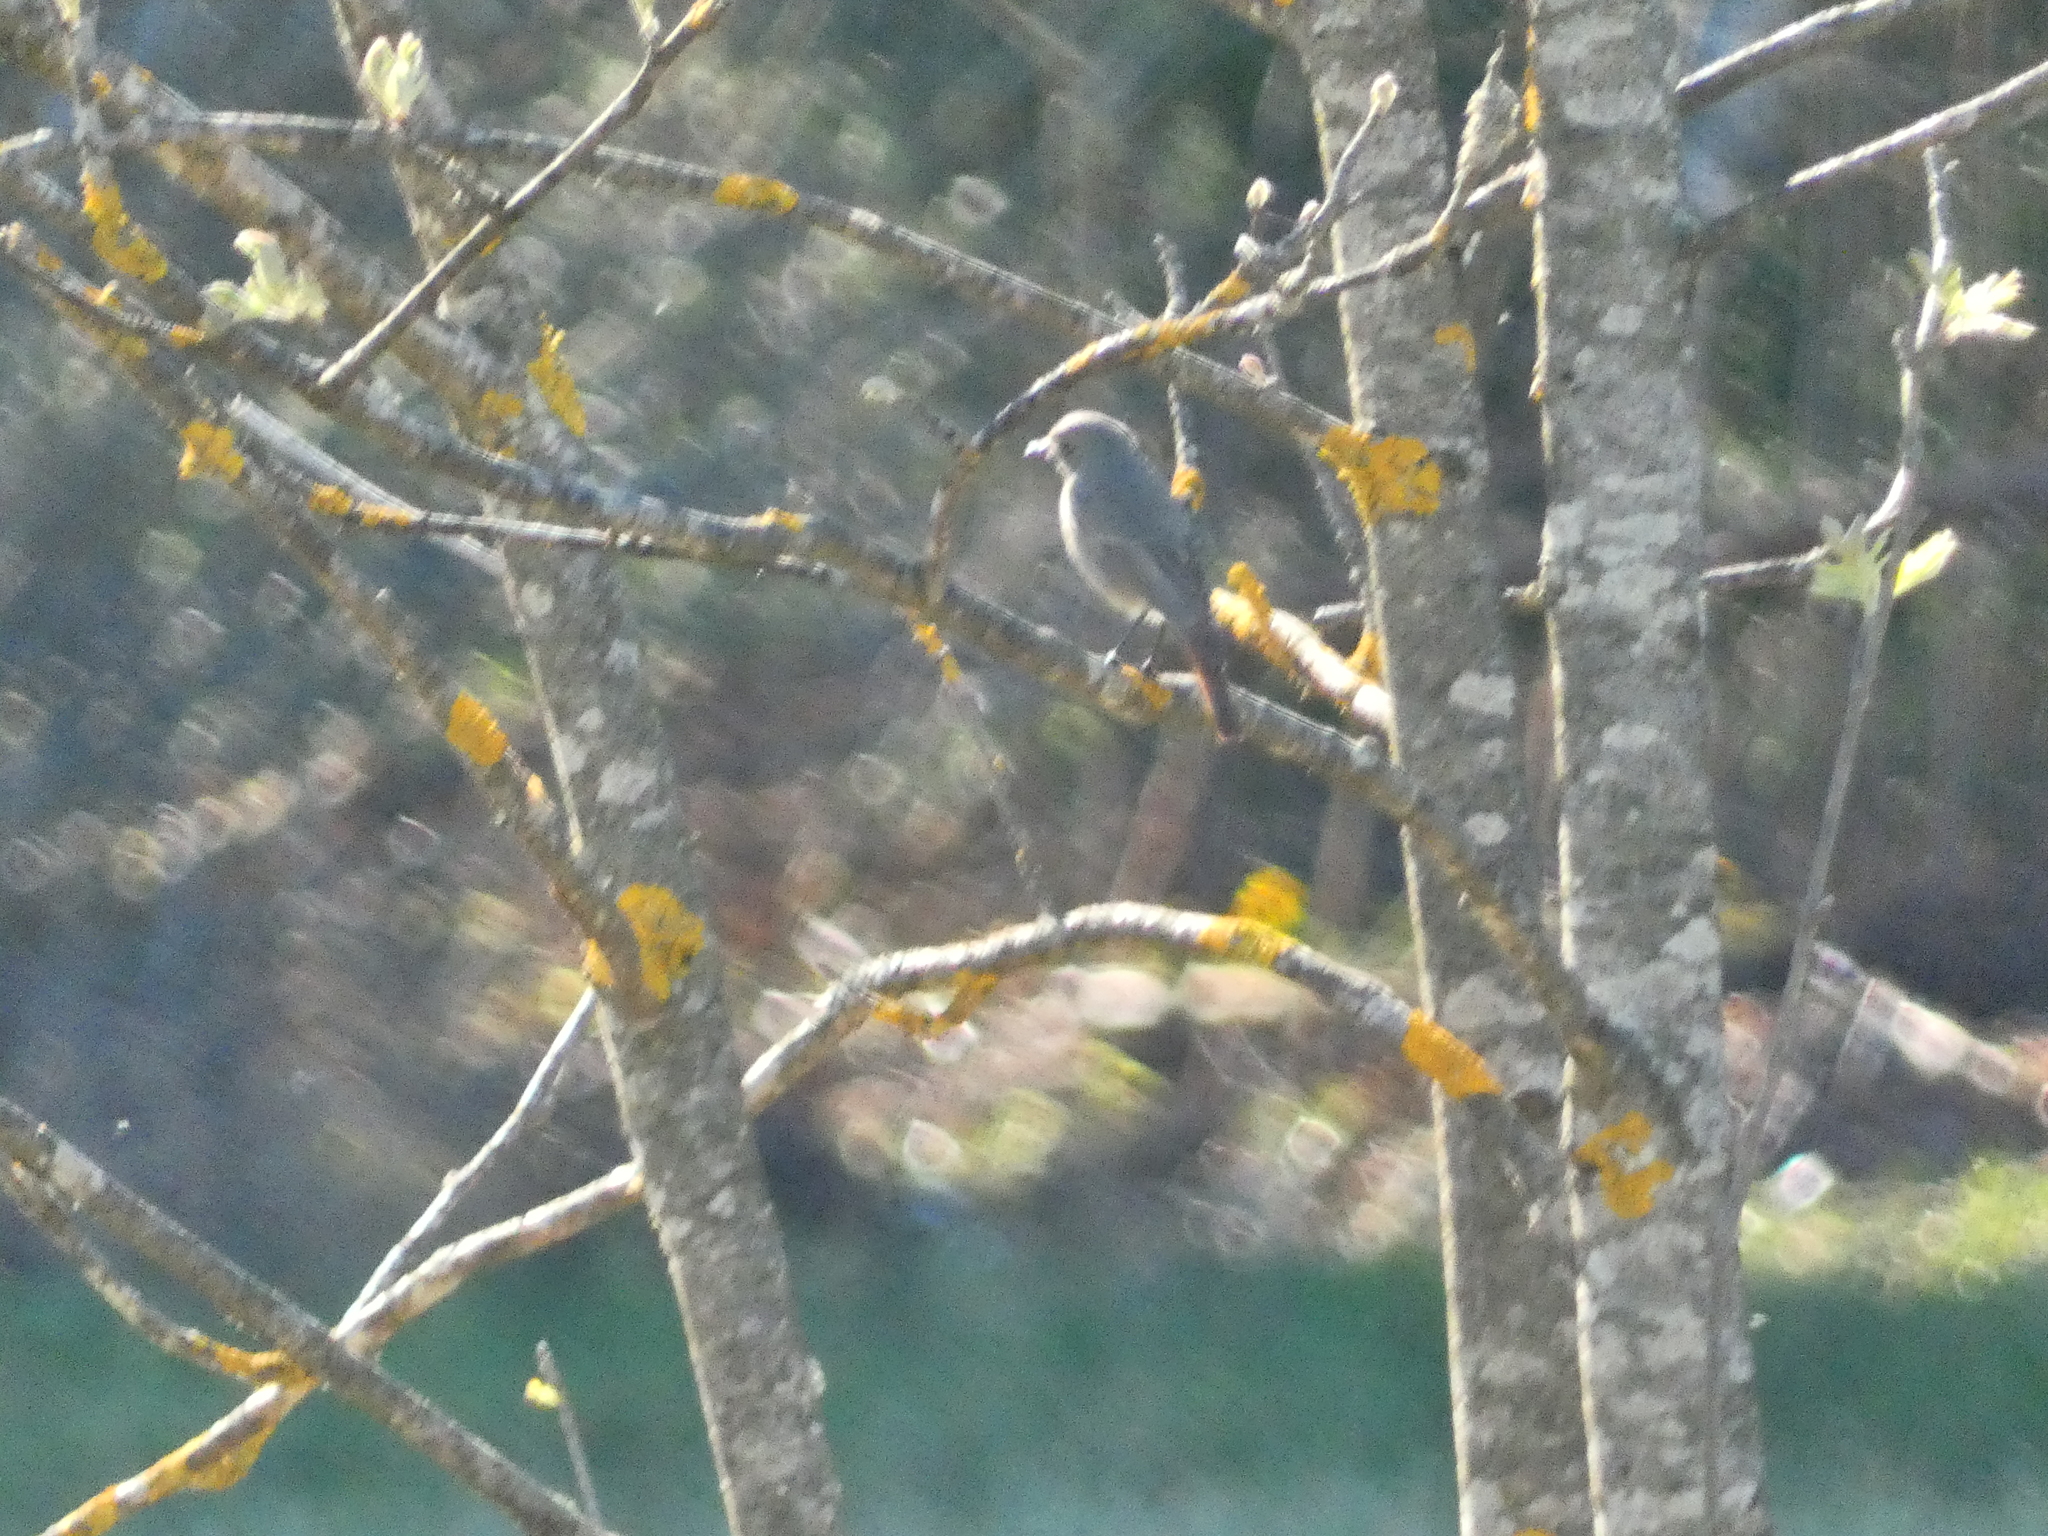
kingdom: Animalia
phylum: Chordata
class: Aves
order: Passeriformes
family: Muscicapidae
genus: Phoenicurus
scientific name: Phoenicurus ochruros
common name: Black redstart
